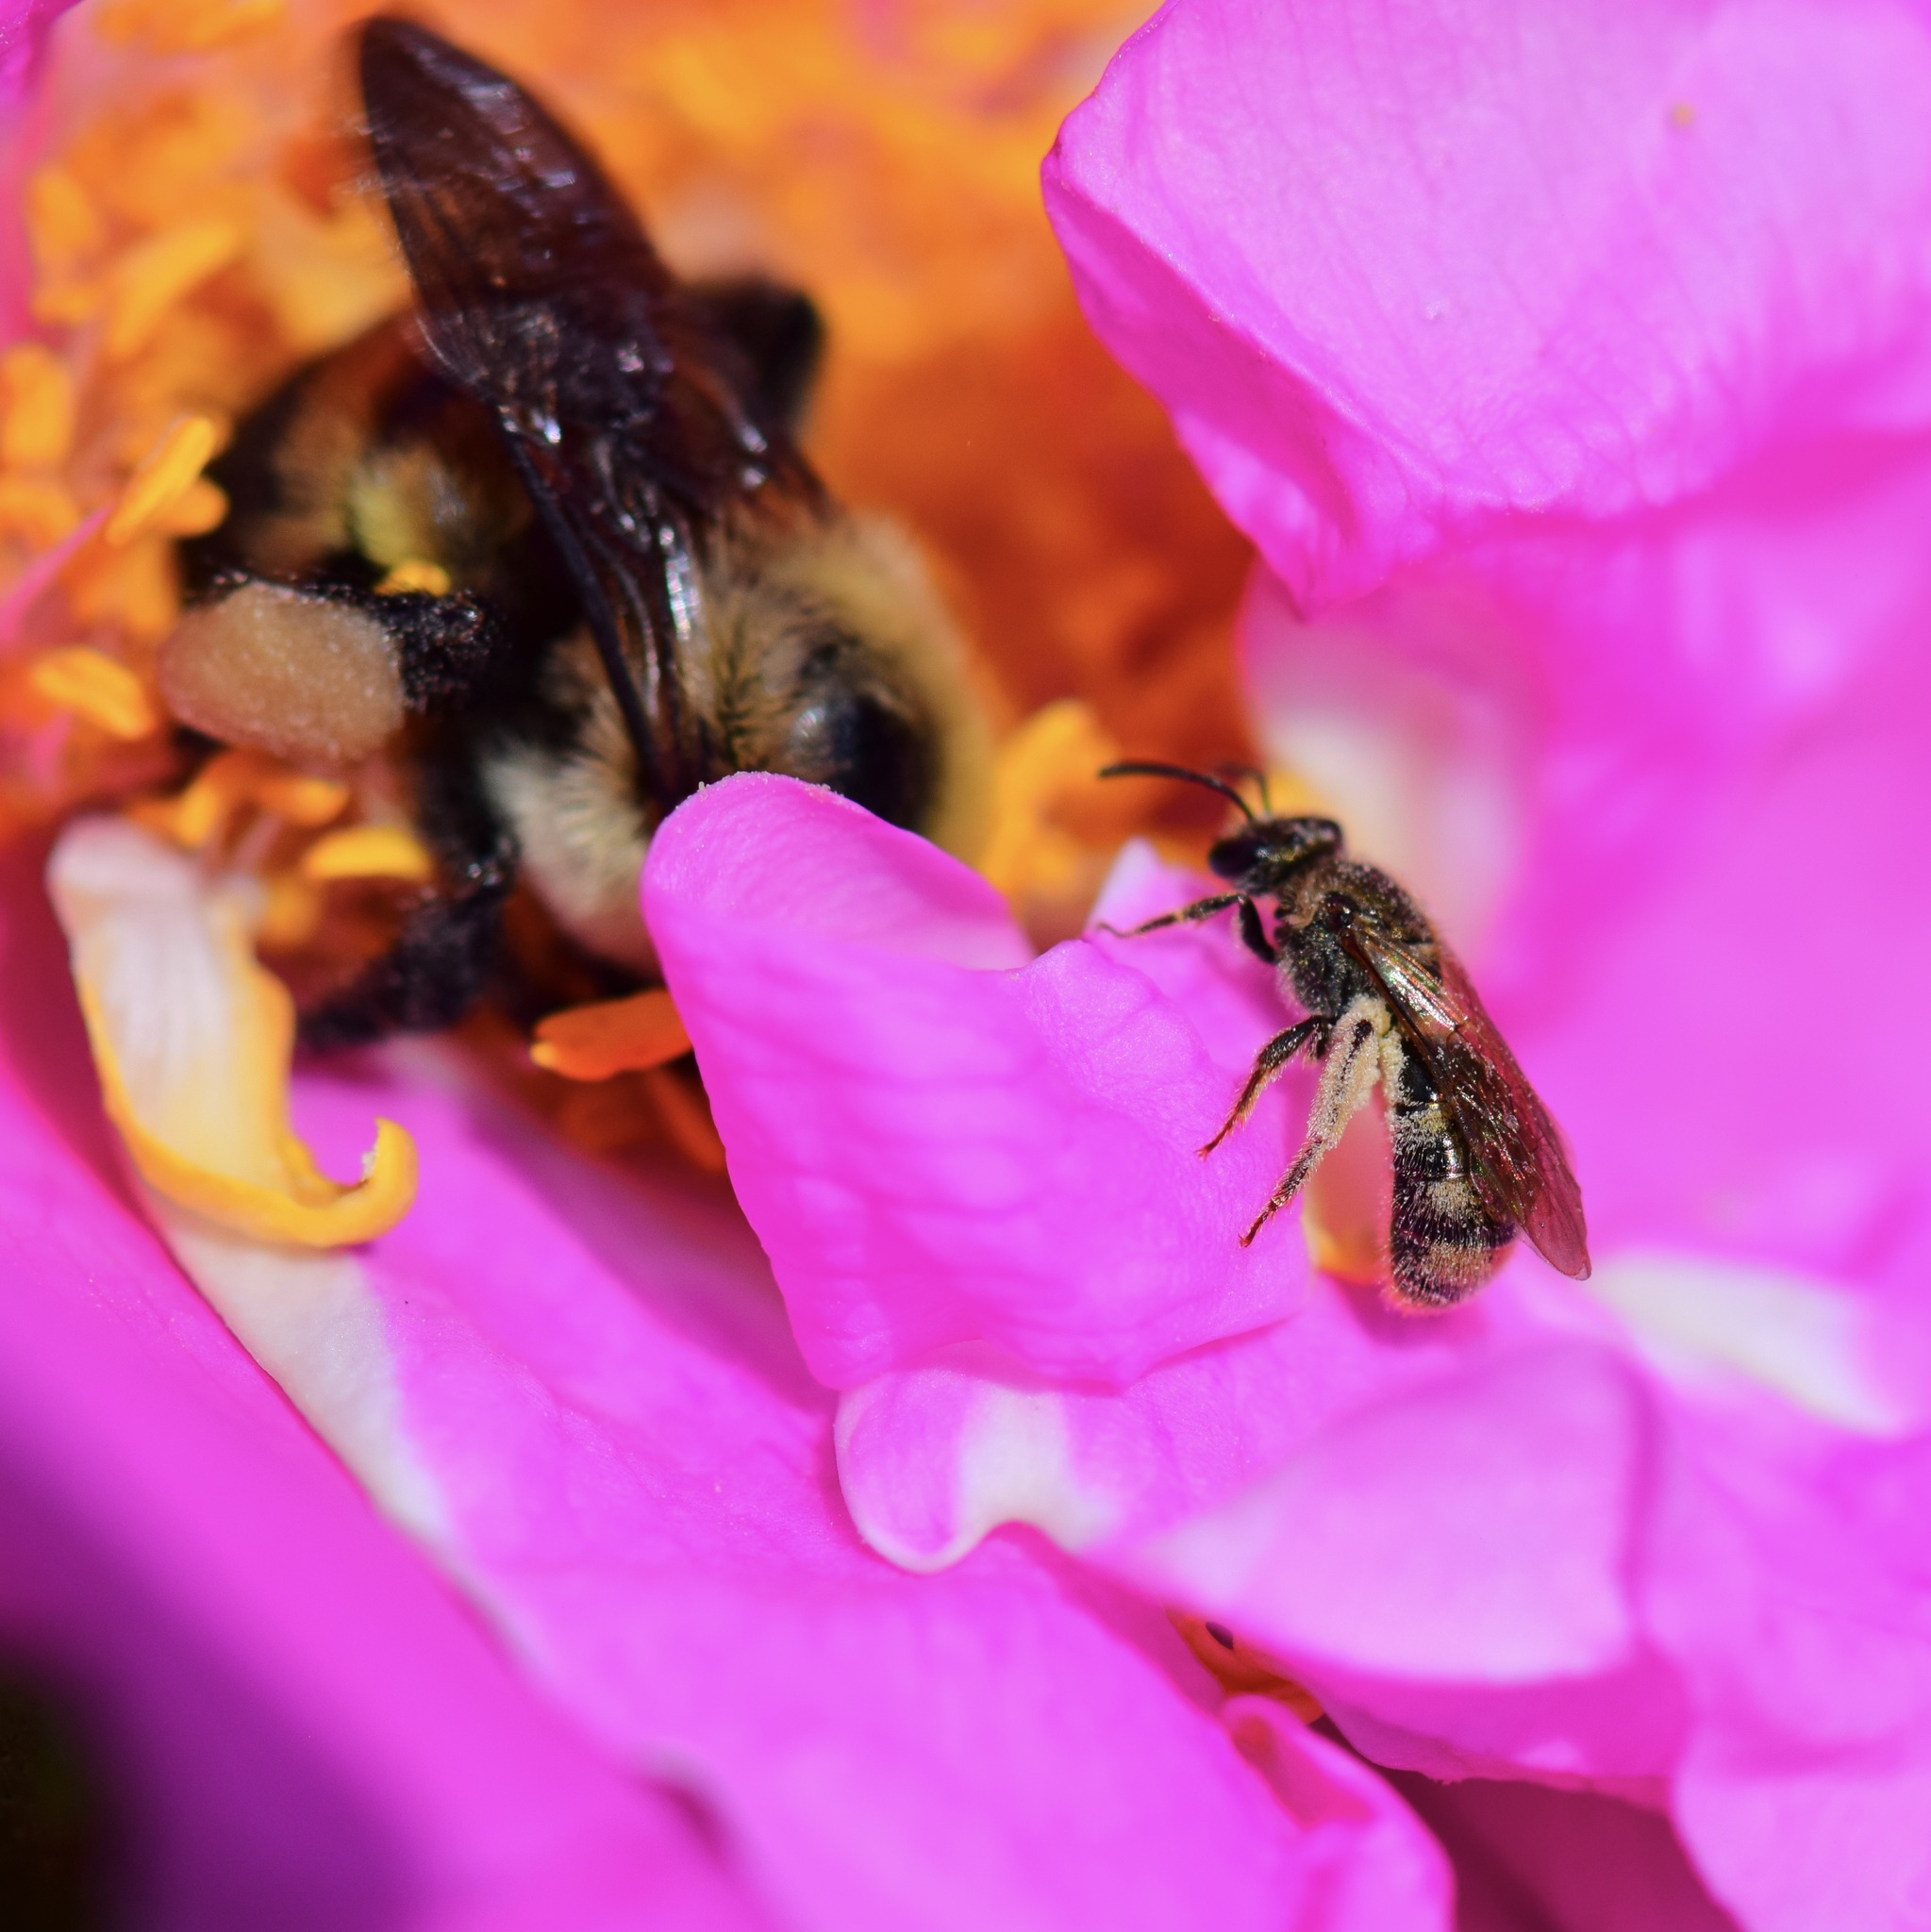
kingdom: Animalia
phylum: Arthropoda
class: Insecta
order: Hymenoptera
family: Halictidae
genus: Lasioglossum
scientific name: Lasioglossum cressonii
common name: Cresson's dialictus
